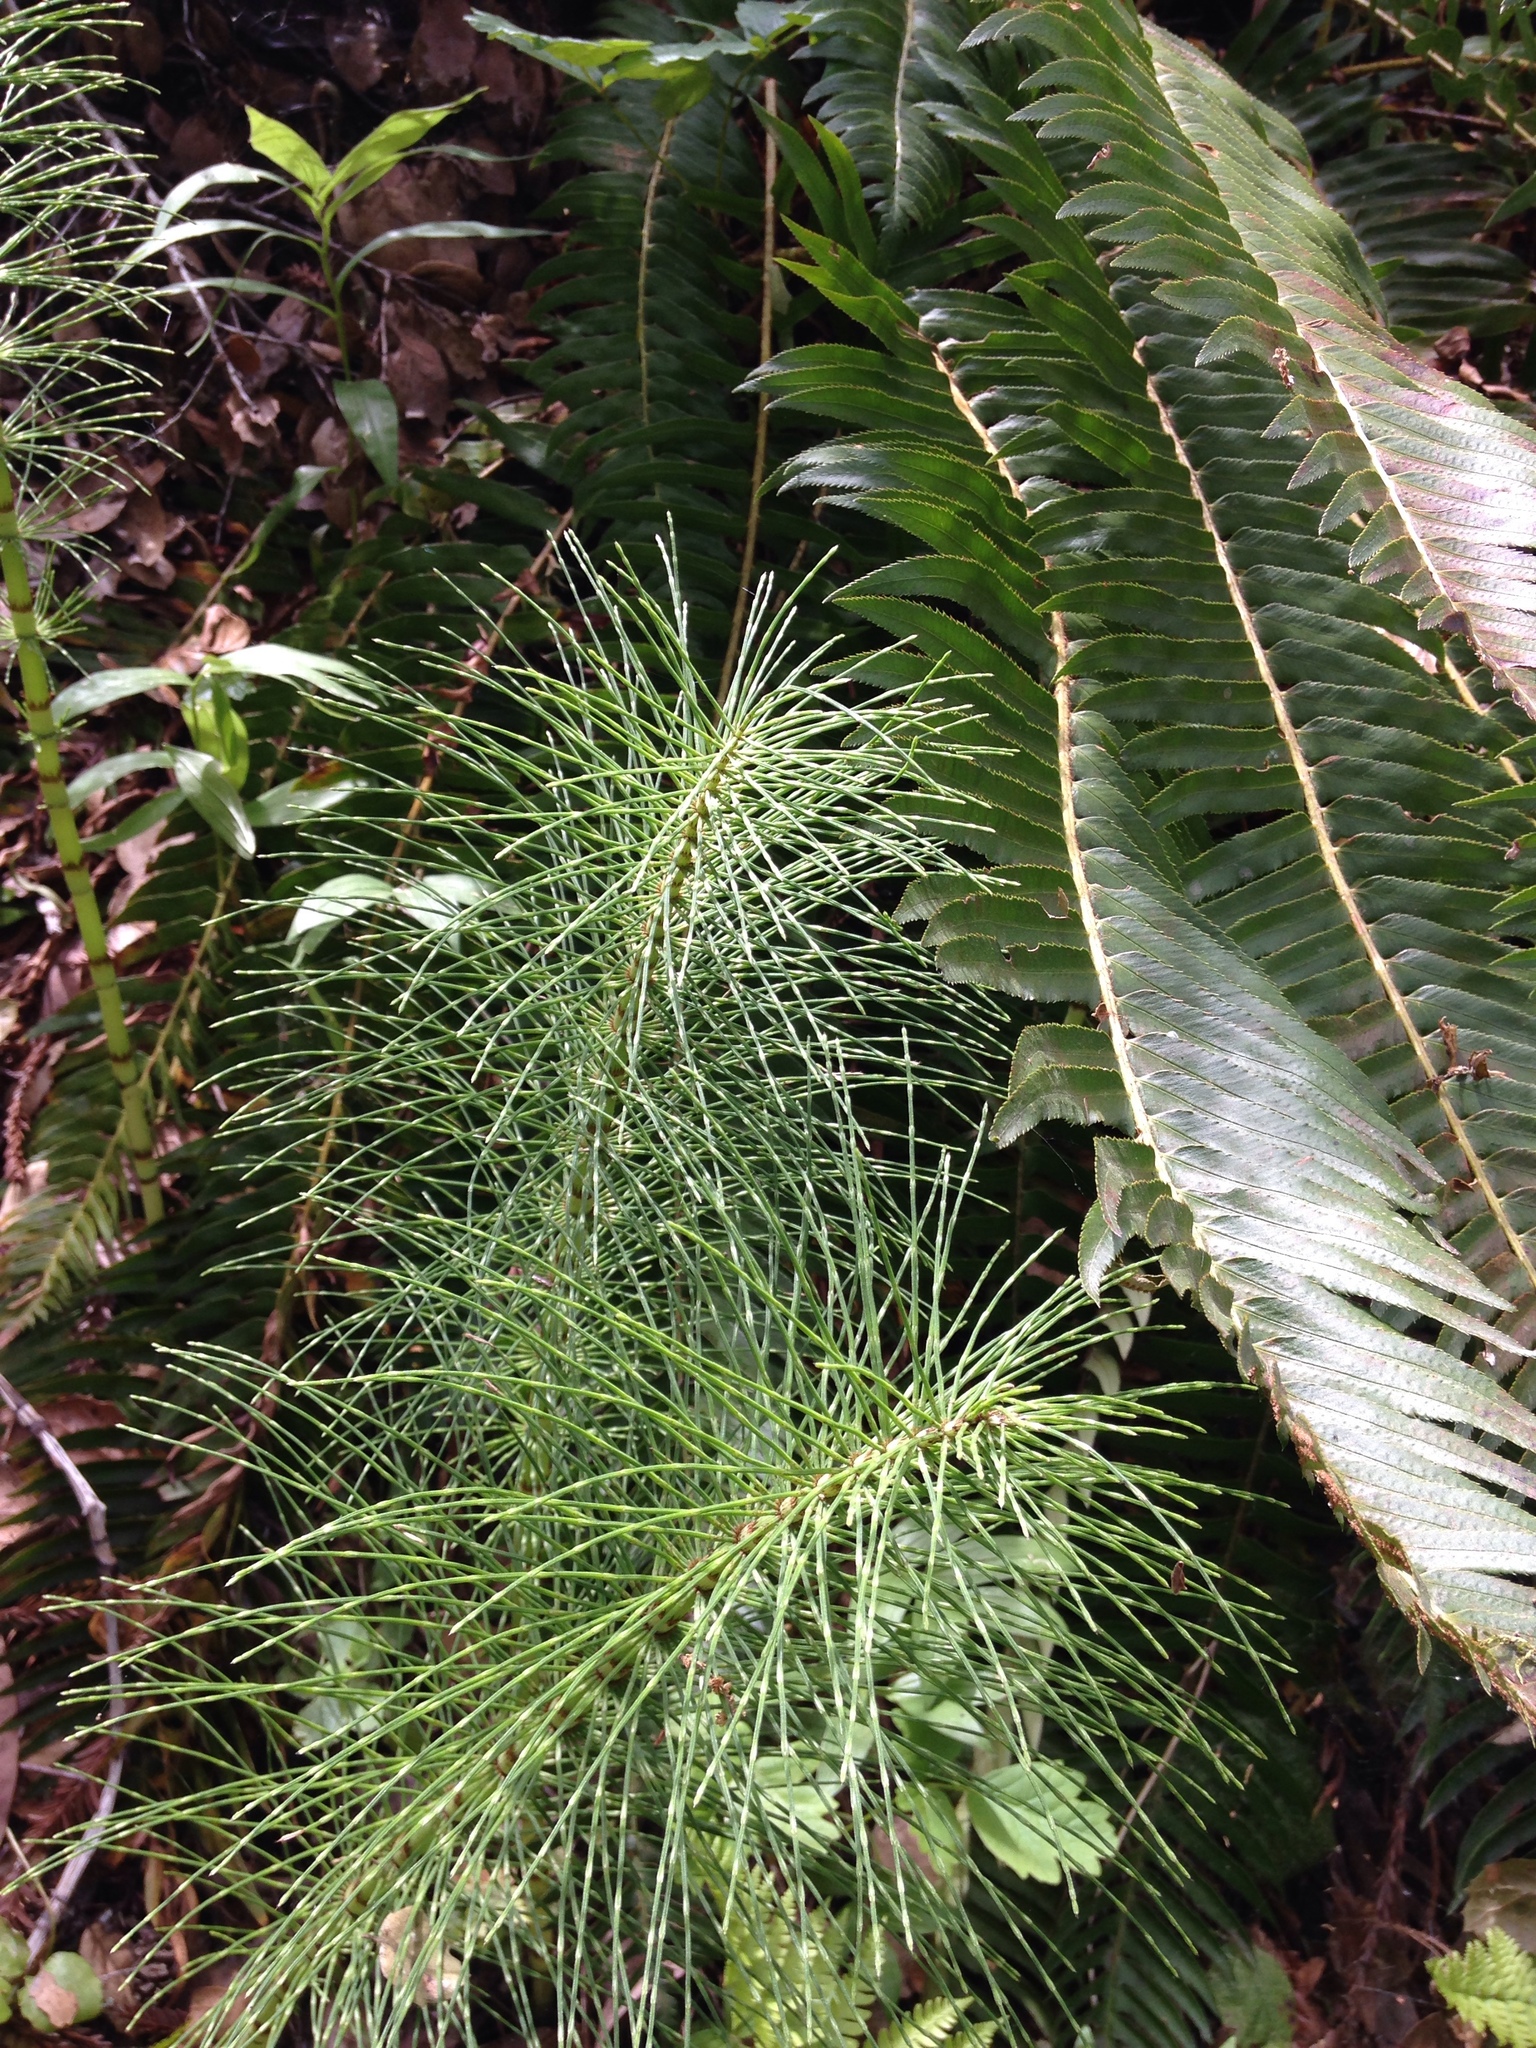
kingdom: Plantae
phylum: Tracheophyta
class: Polypodiopsida
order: Equisetales
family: Equisetaceae
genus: Equisetum
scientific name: Equisetum telmateia
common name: Great horsetail
